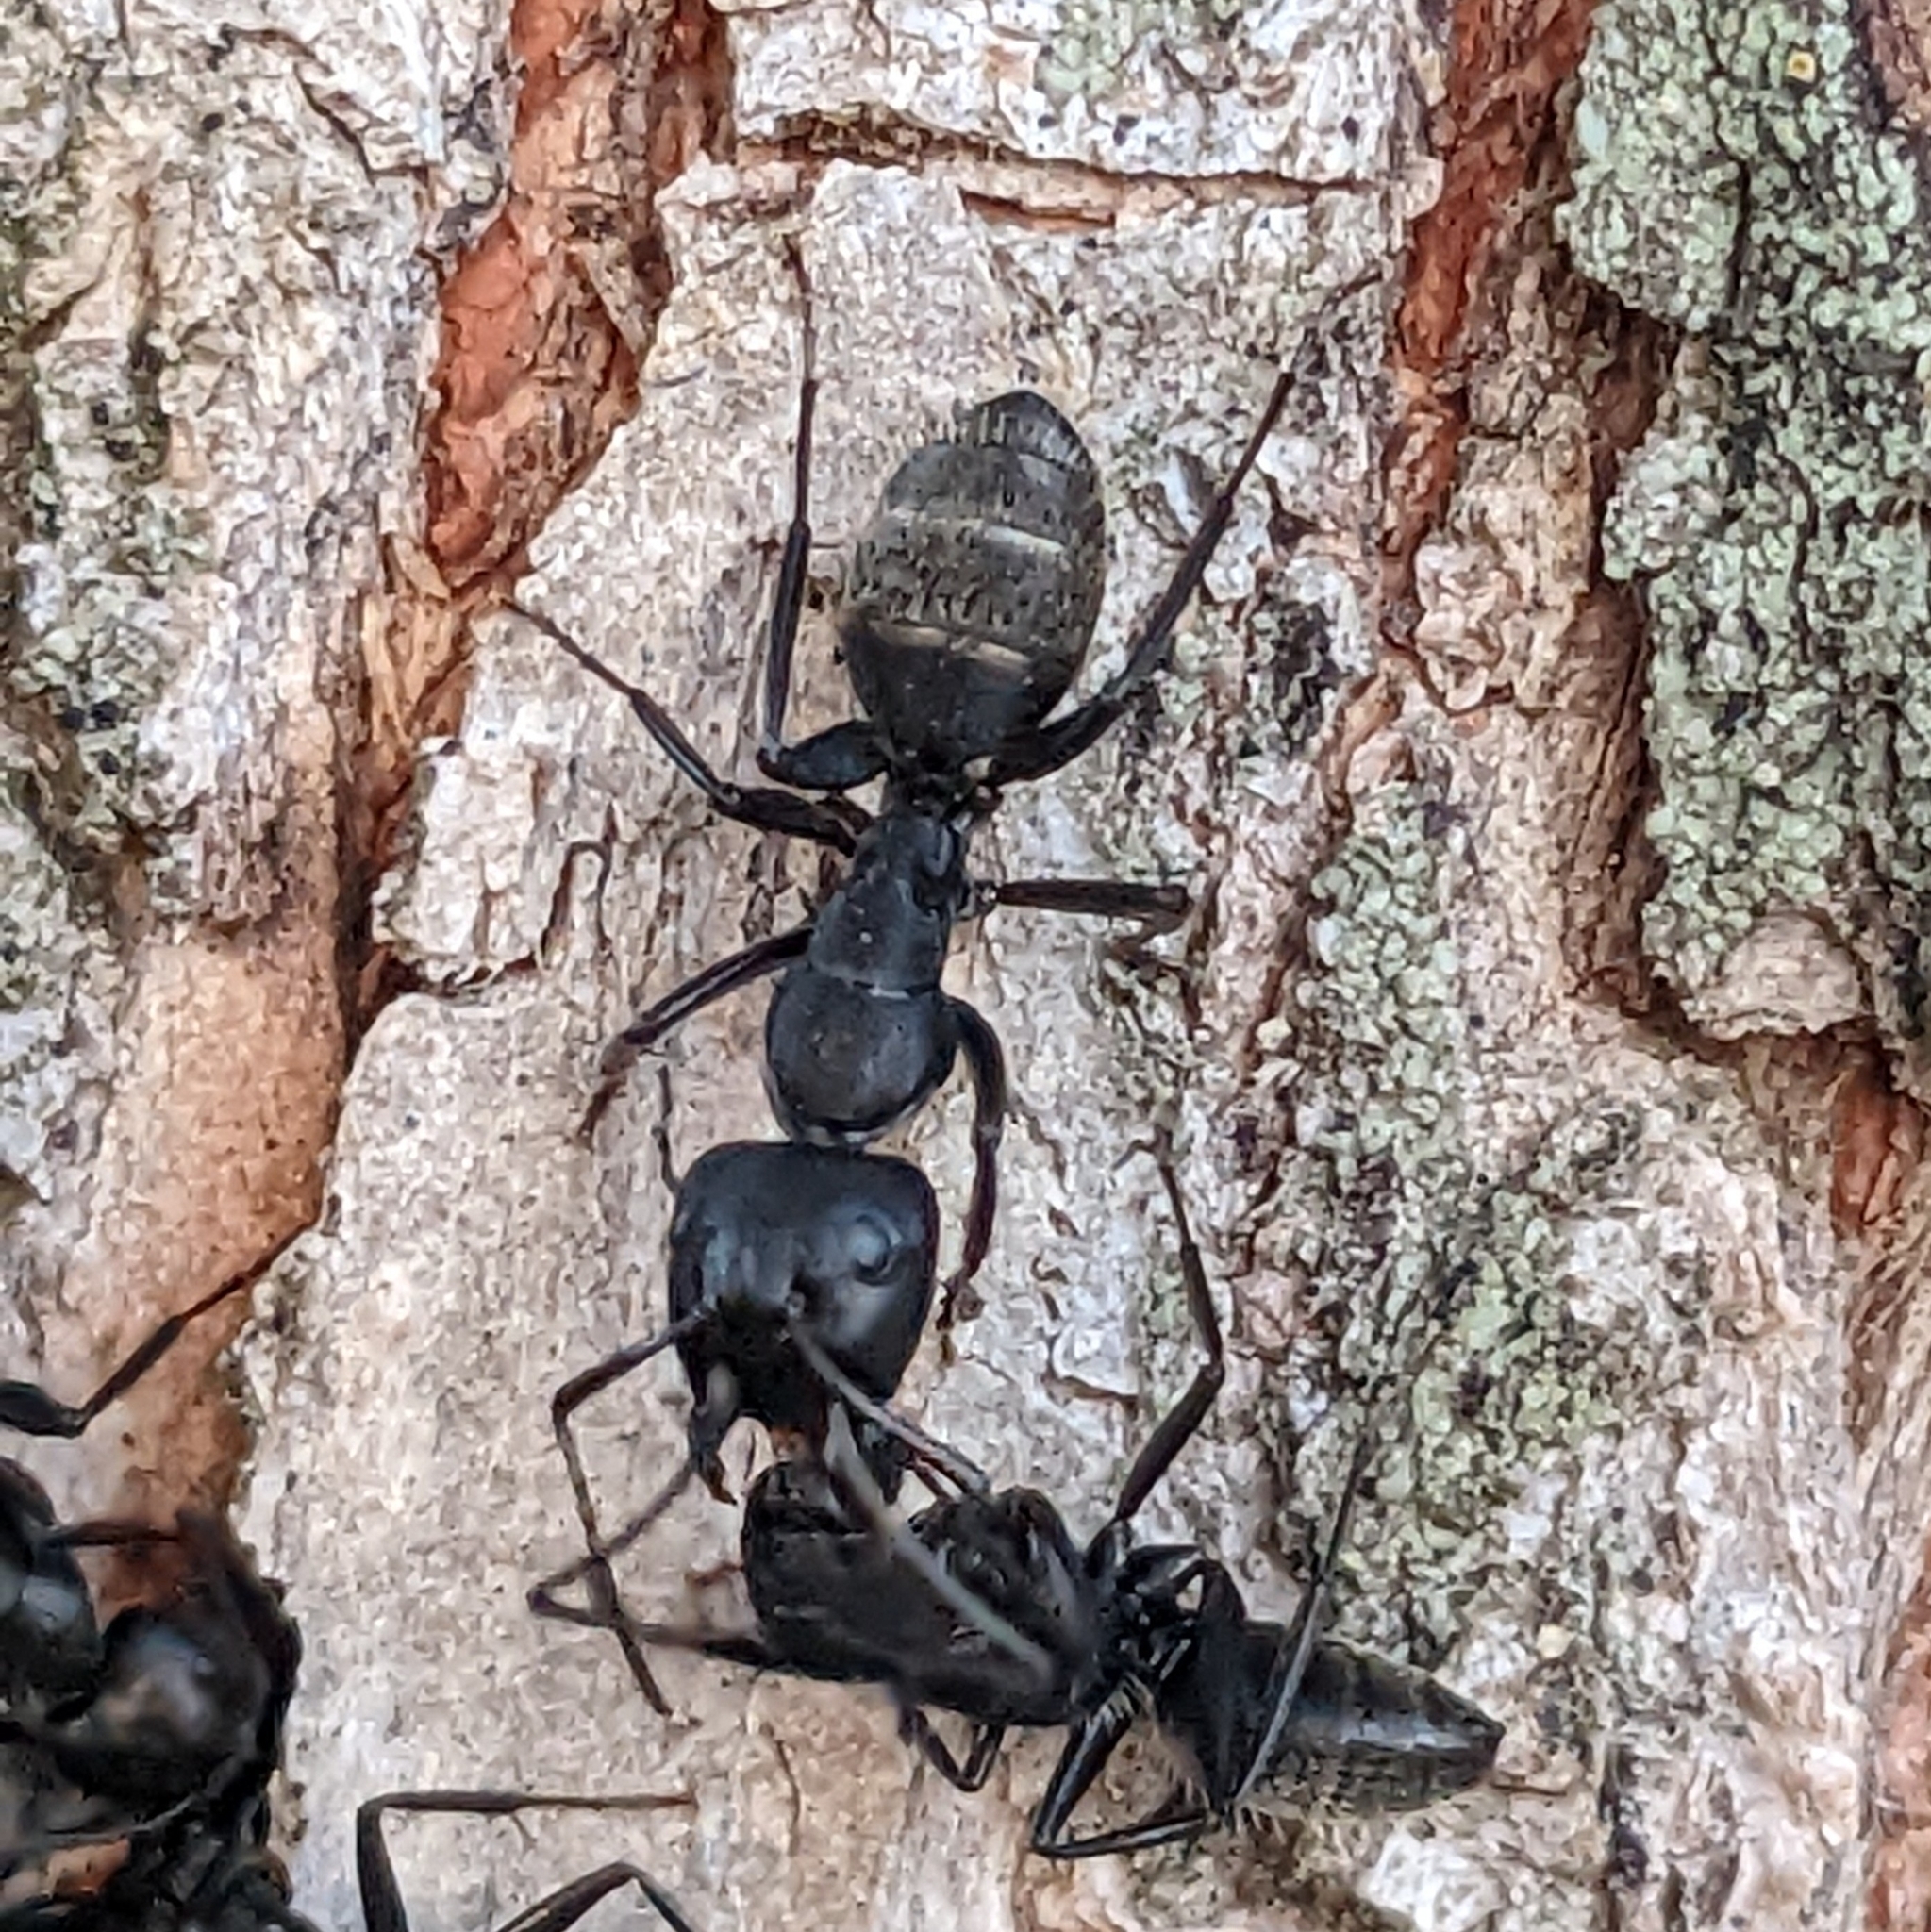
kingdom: Animalia
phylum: Arthropoda
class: Insecta
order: Hymenoptera
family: Formicidae
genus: Camponotus
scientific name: Camponotus vagus
